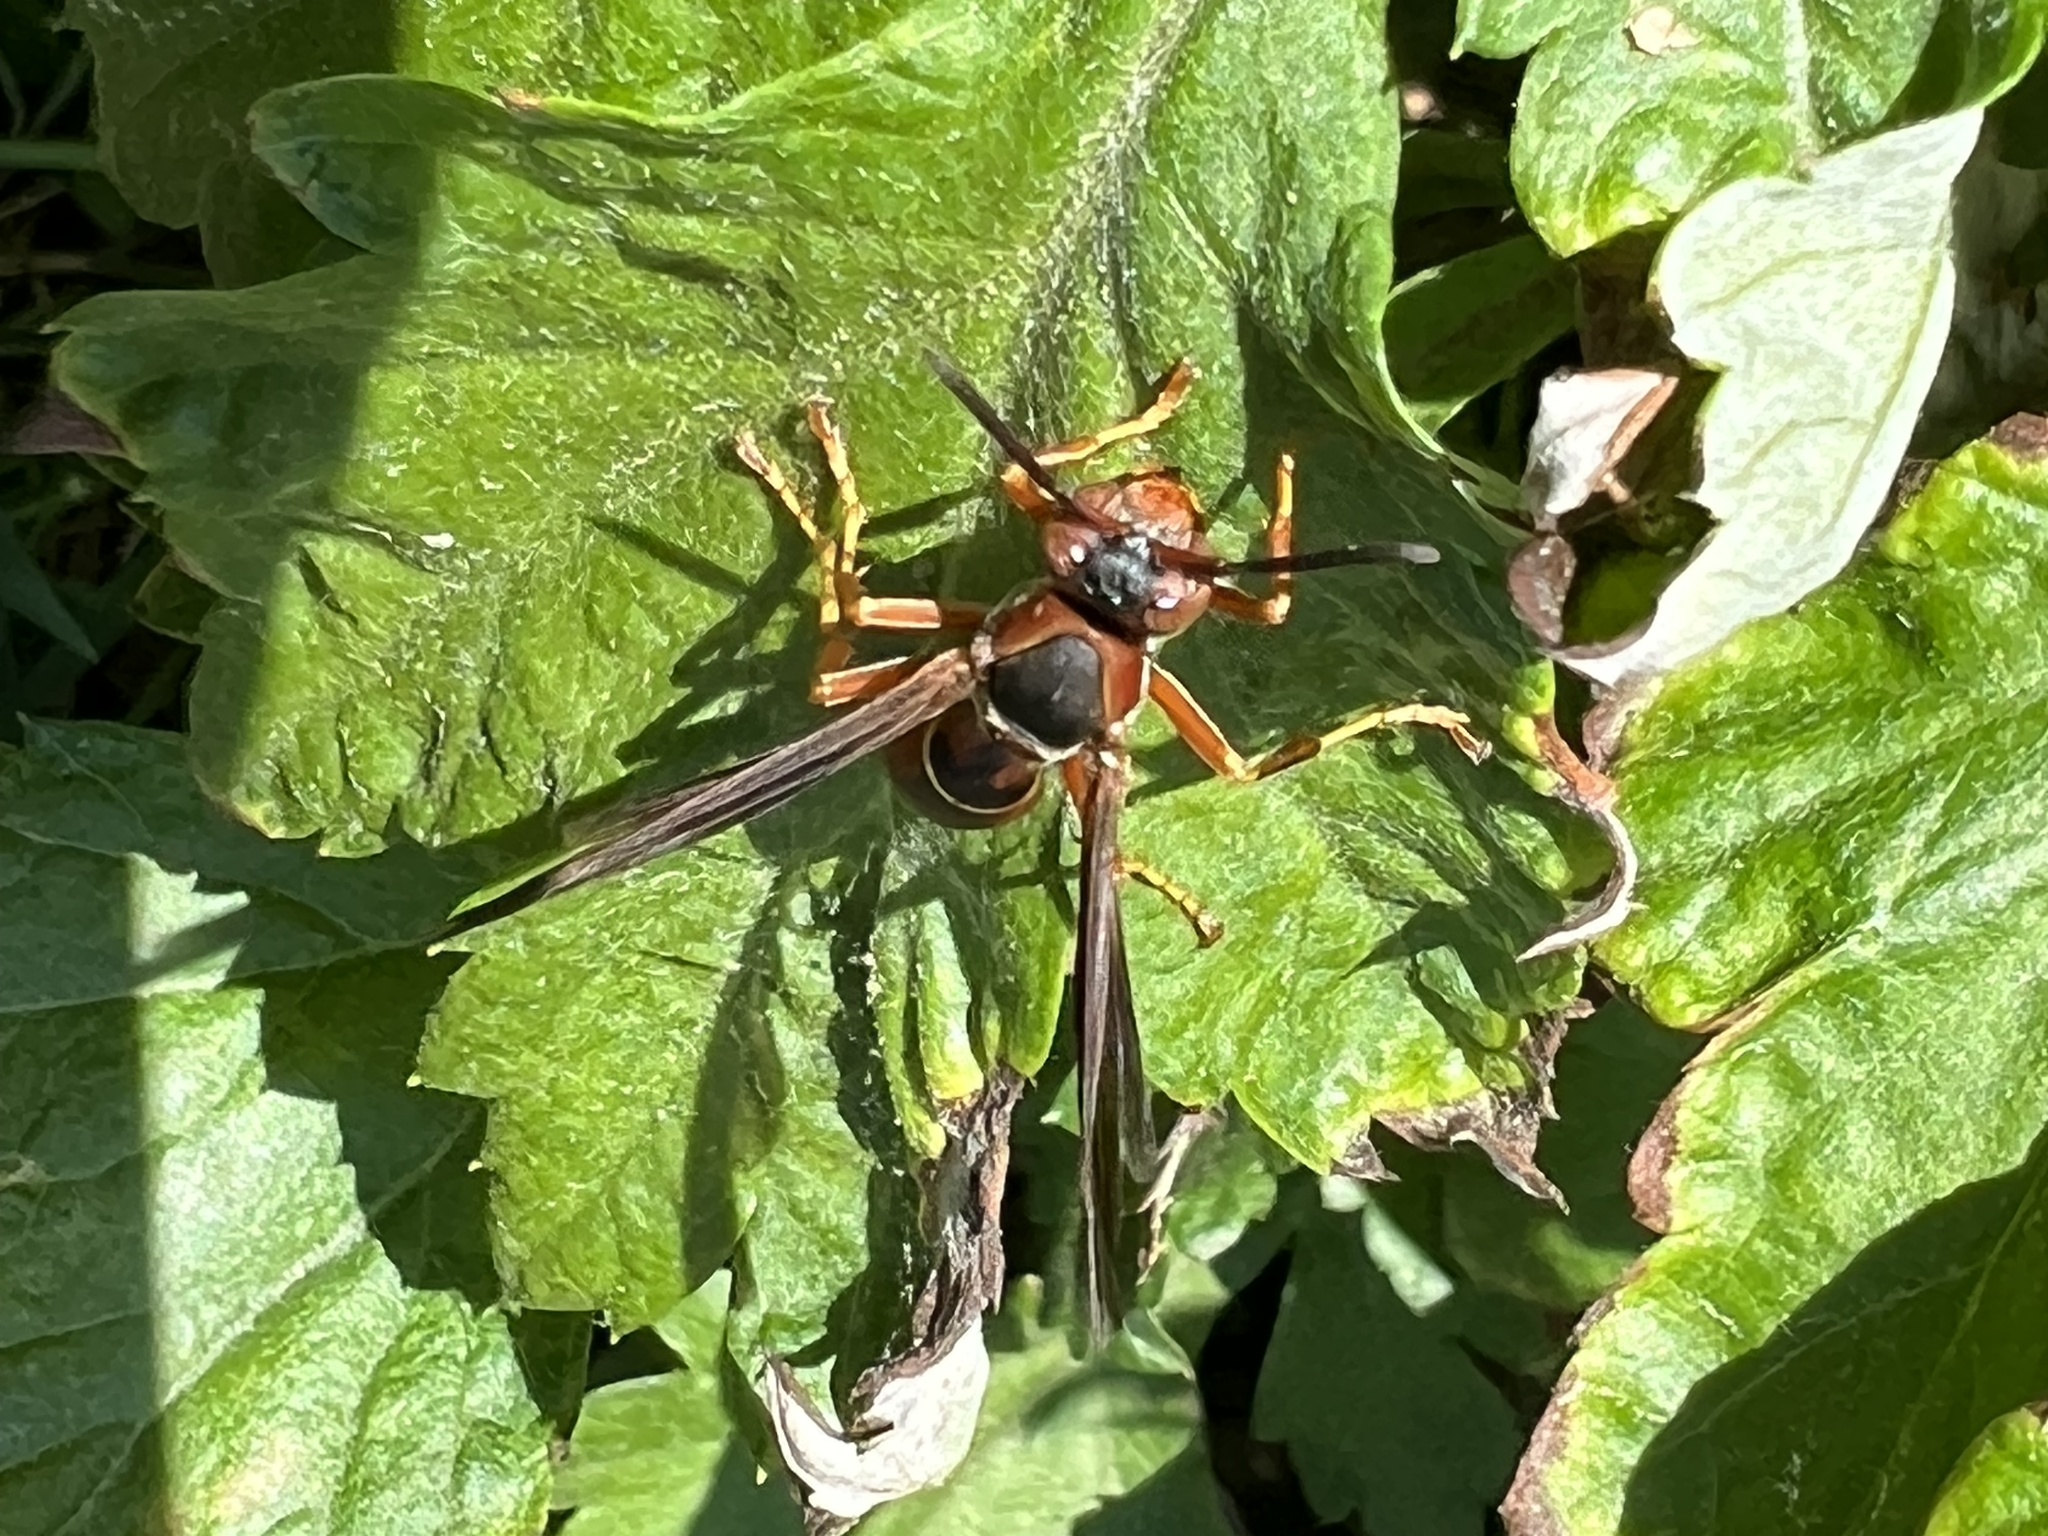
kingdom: Animalia
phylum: Arthropoda
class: Insecta
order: Hymenoptera
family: Eumenidae
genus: Polistes
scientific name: Polistes fuscatus
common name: Dark paper wasp
